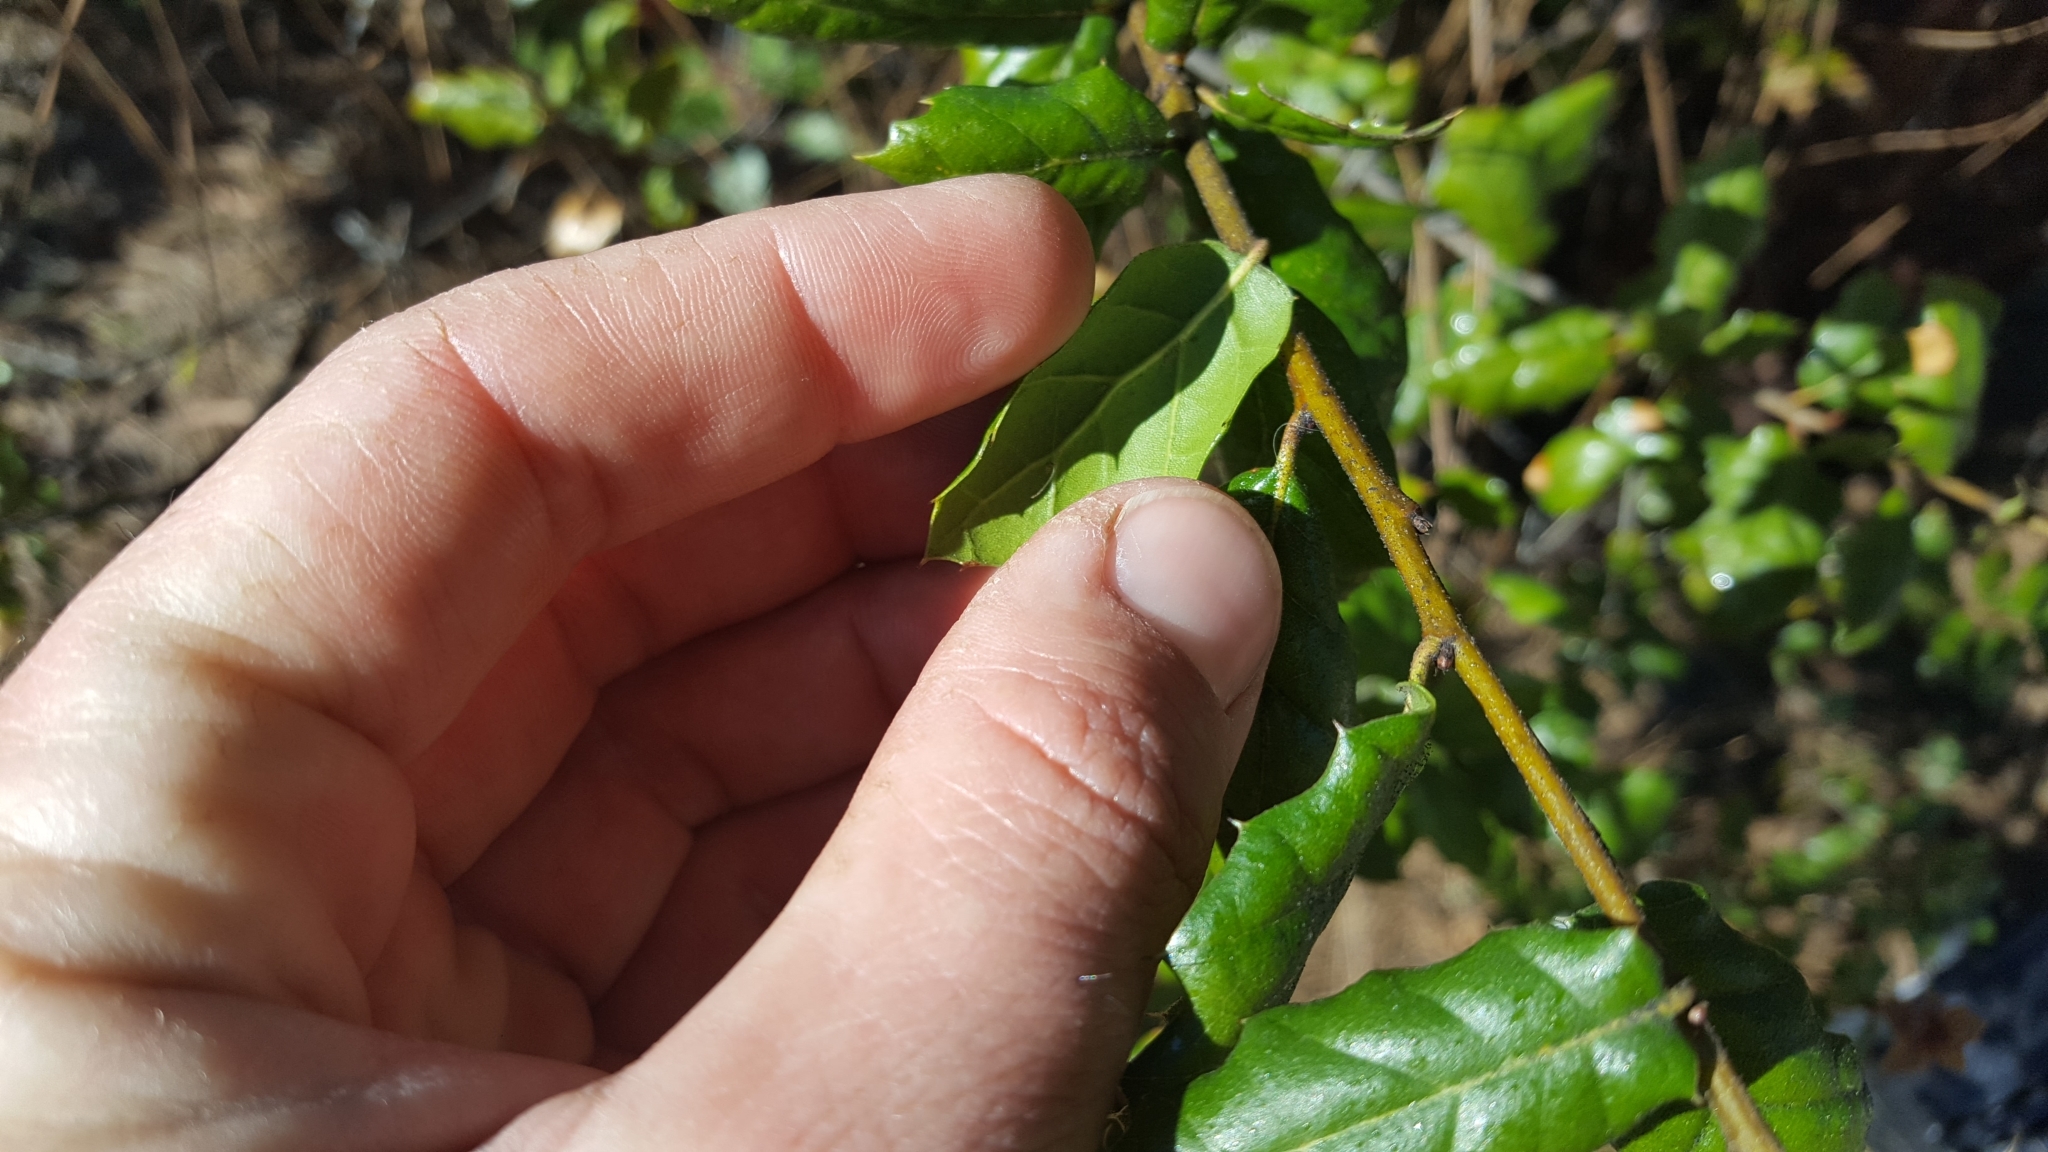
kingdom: Plantae
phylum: Tracheophyta
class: Magnoliopsida
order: Fagales
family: Fagaceae
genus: Quercus
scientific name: Quercus agrifolia
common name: California live oak
